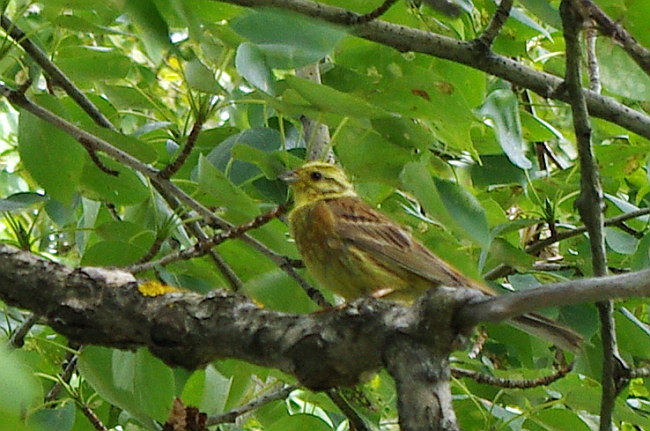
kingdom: Animalia
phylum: Chordata
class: Aves
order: Passeriformes
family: Emberizidae
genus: Emberiza
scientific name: Emberiza citrinella
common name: Yellowhammer
